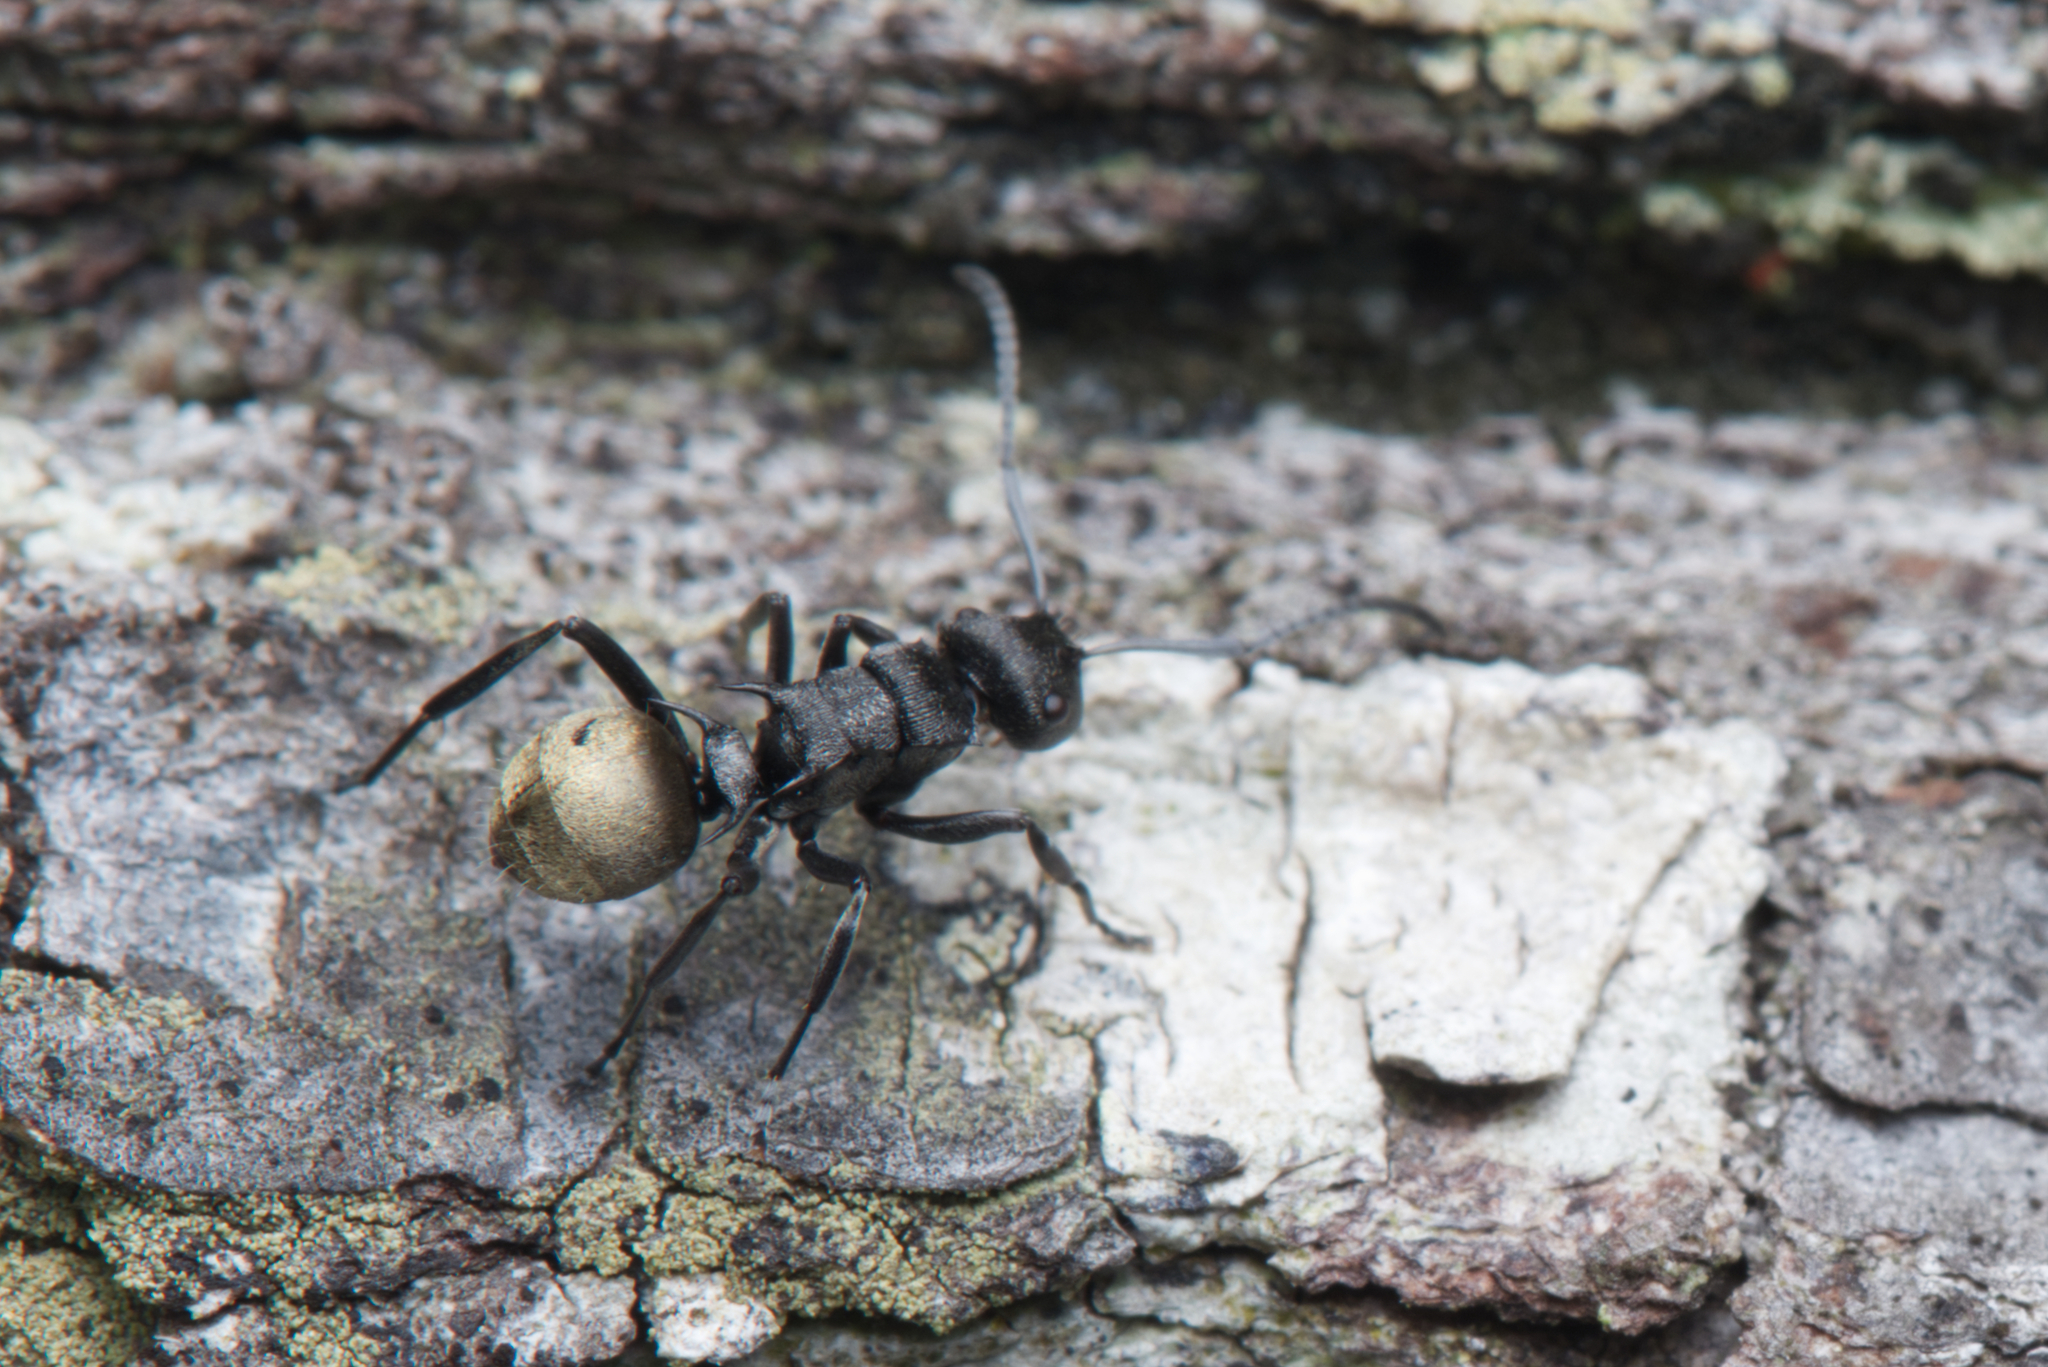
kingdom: Animalia
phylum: Arthropoda
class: Insecta
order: Hymenoptera
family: Formicidae
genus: Polyrhachis
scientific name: Polyrhachis mjobergi
